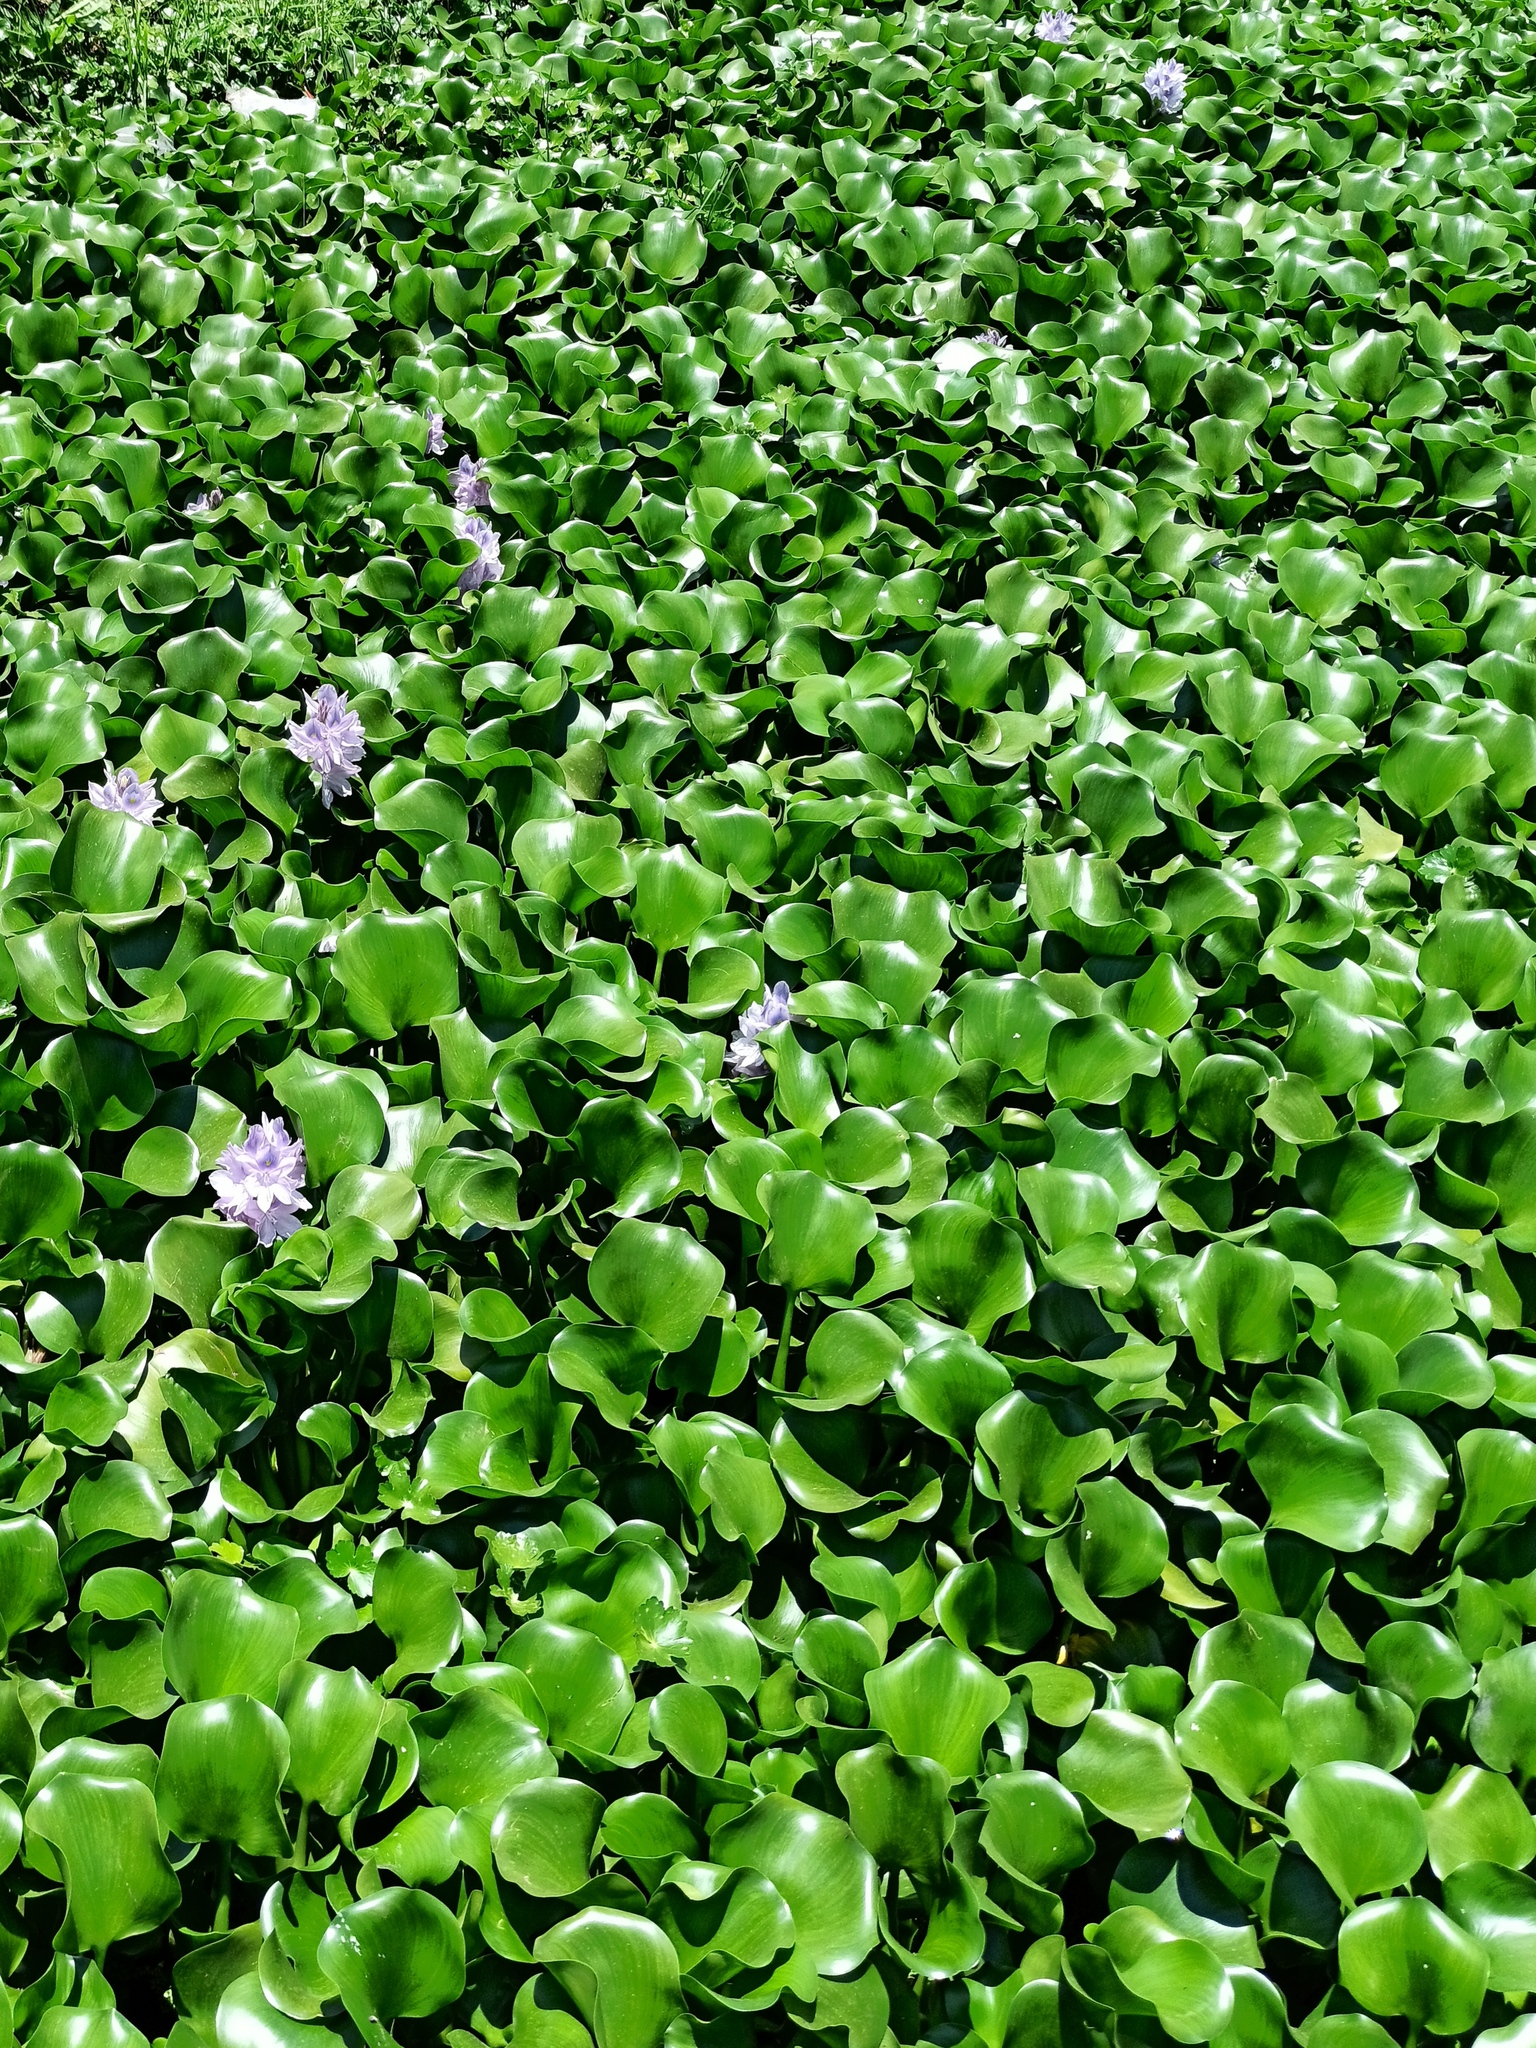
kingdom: Plantae
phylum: Tracheophyta
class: Liliopsida
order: Commelinales
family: Pontederiaceae
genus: Pontederia
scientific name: Pontederia crassipes
